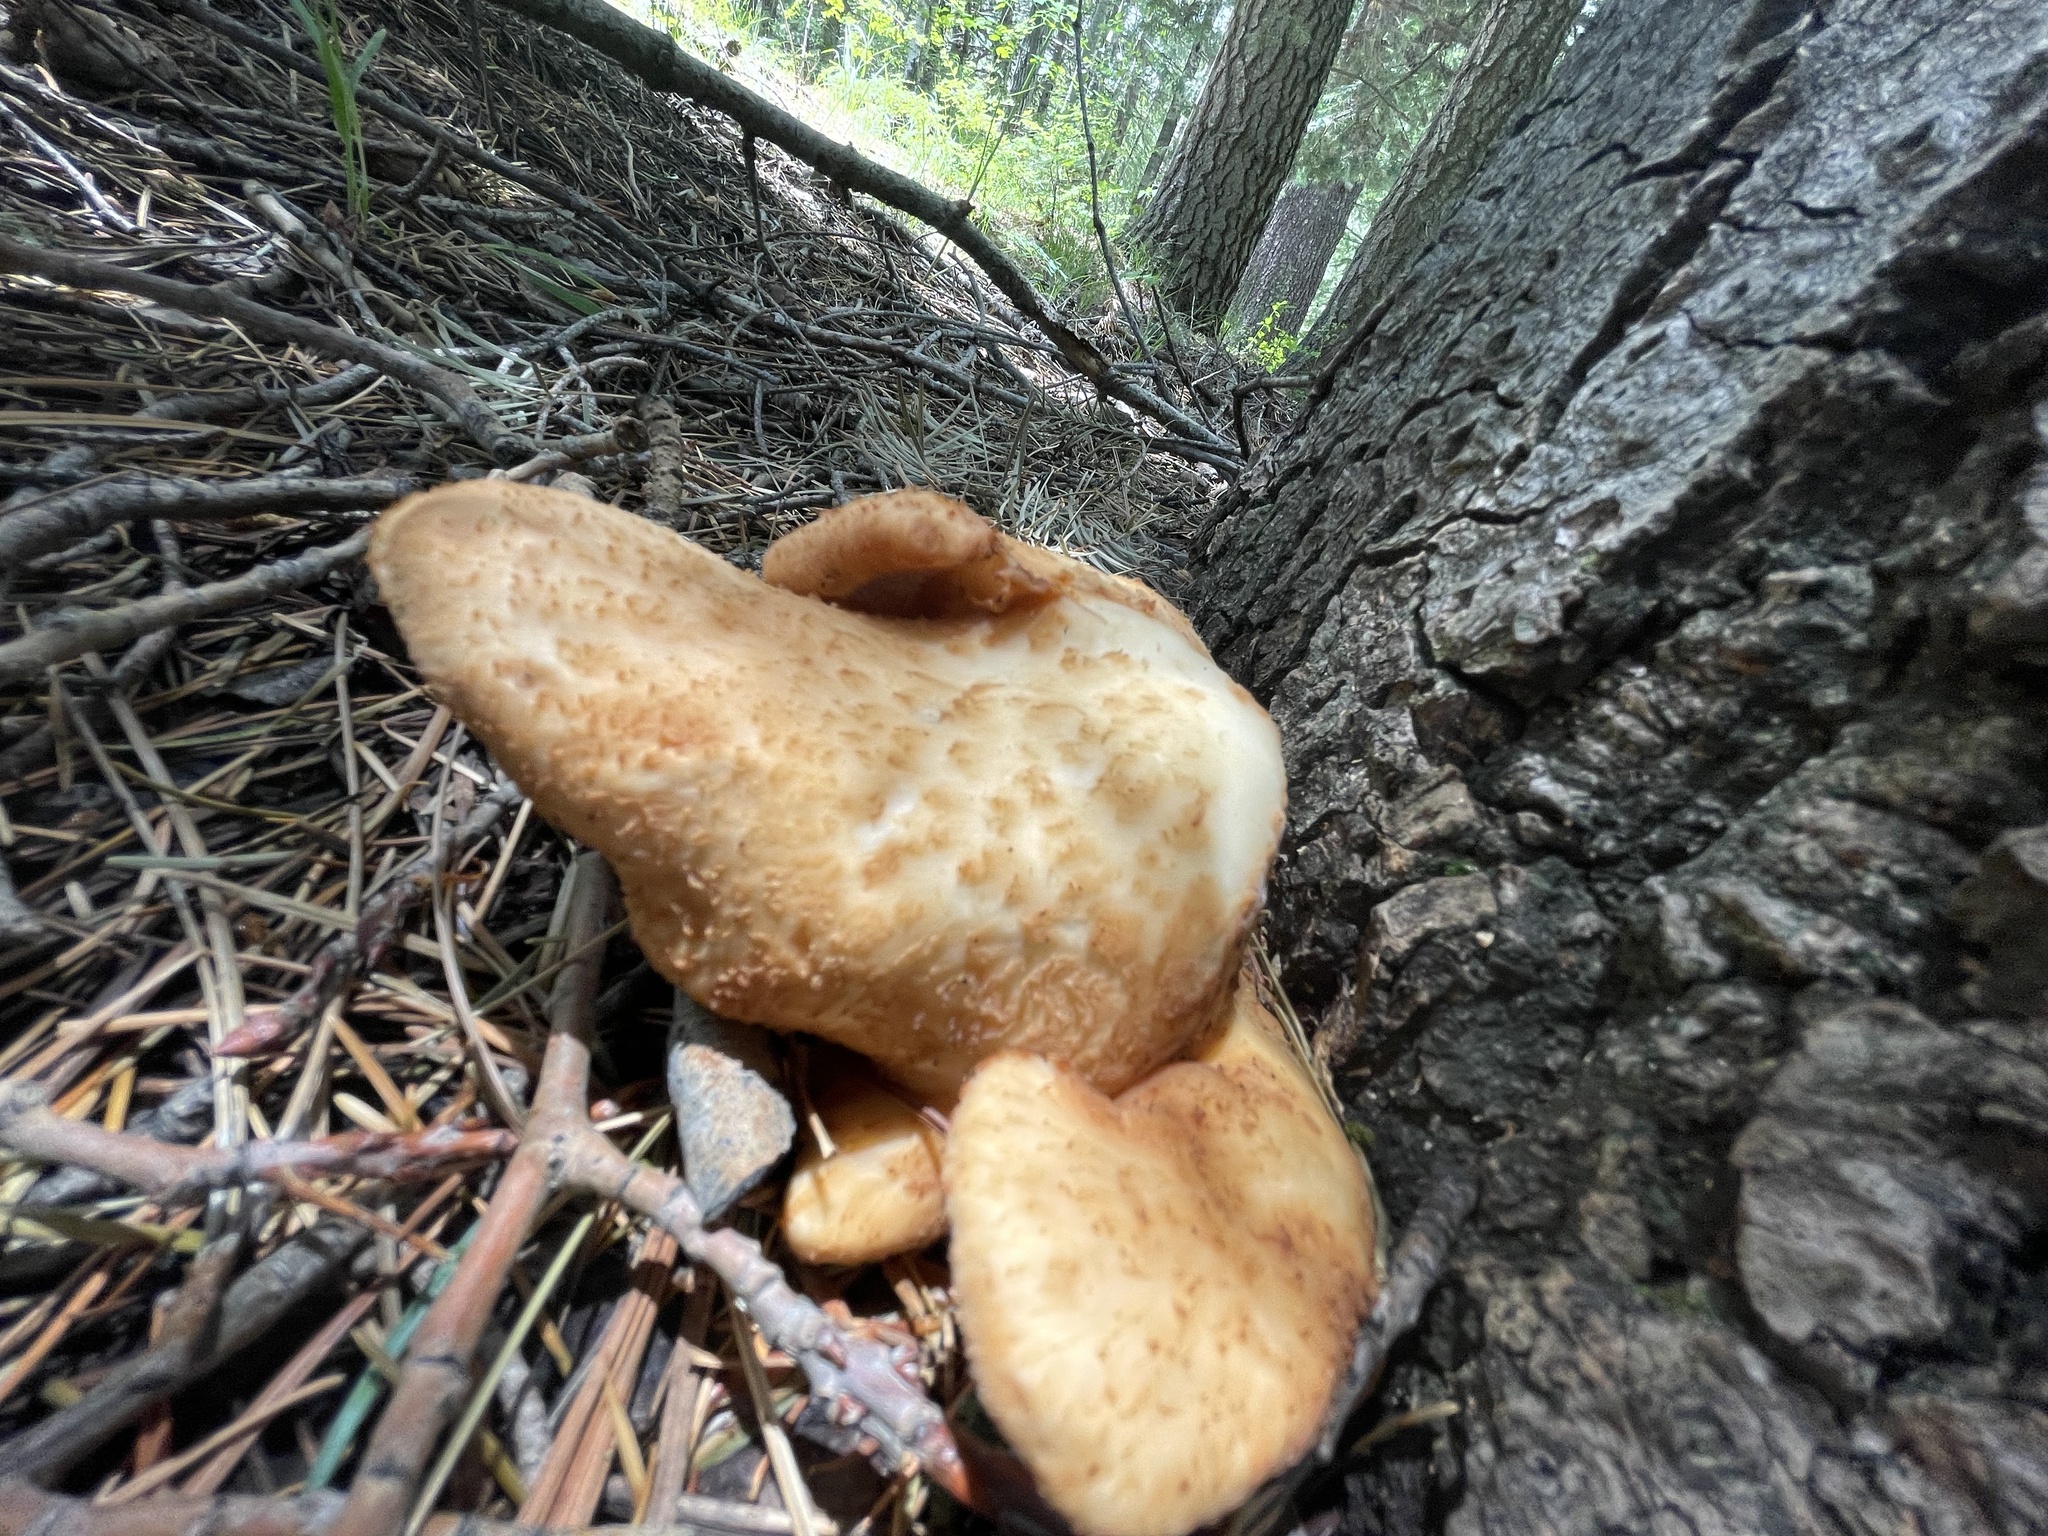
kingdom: Fungi
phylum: Basidiomycota
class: Agaricomycetes
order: Polyporales
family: Polyporaceae
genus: Cerioporus
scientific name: Cerioporus squamosus
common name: Dryad's saddle
